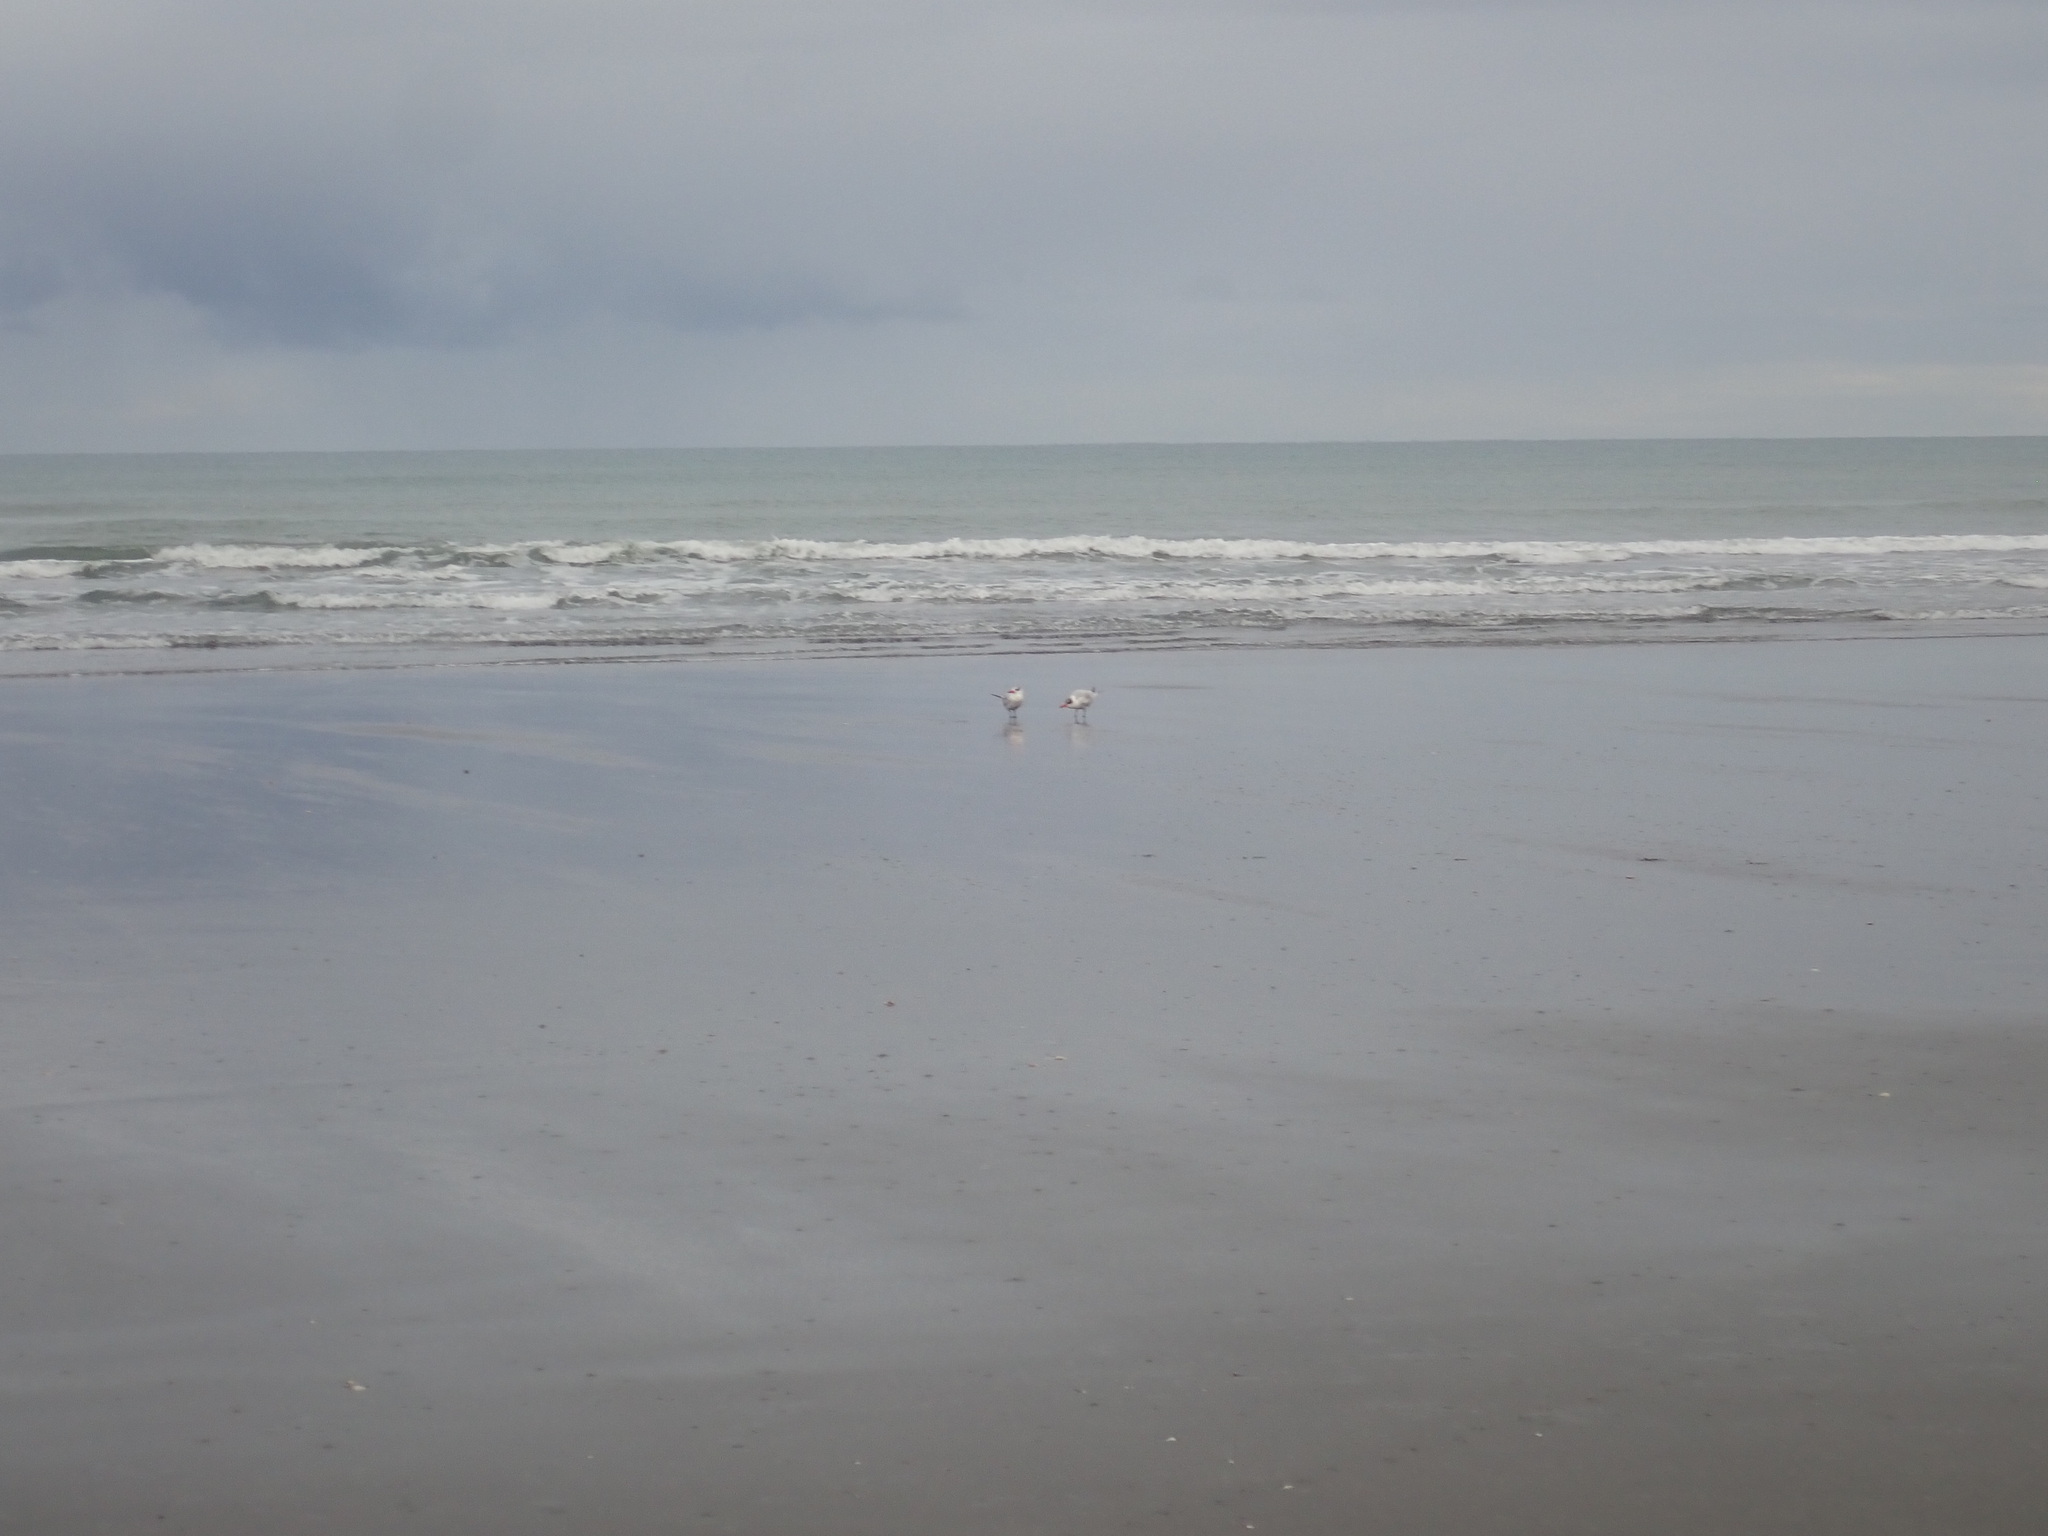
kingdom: Animalia
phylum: Chordata
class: Aves
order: Charadriiformes
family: Laridae
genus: Hydroprogne
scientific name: Hydroprogne caspia
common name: Caspian tern
